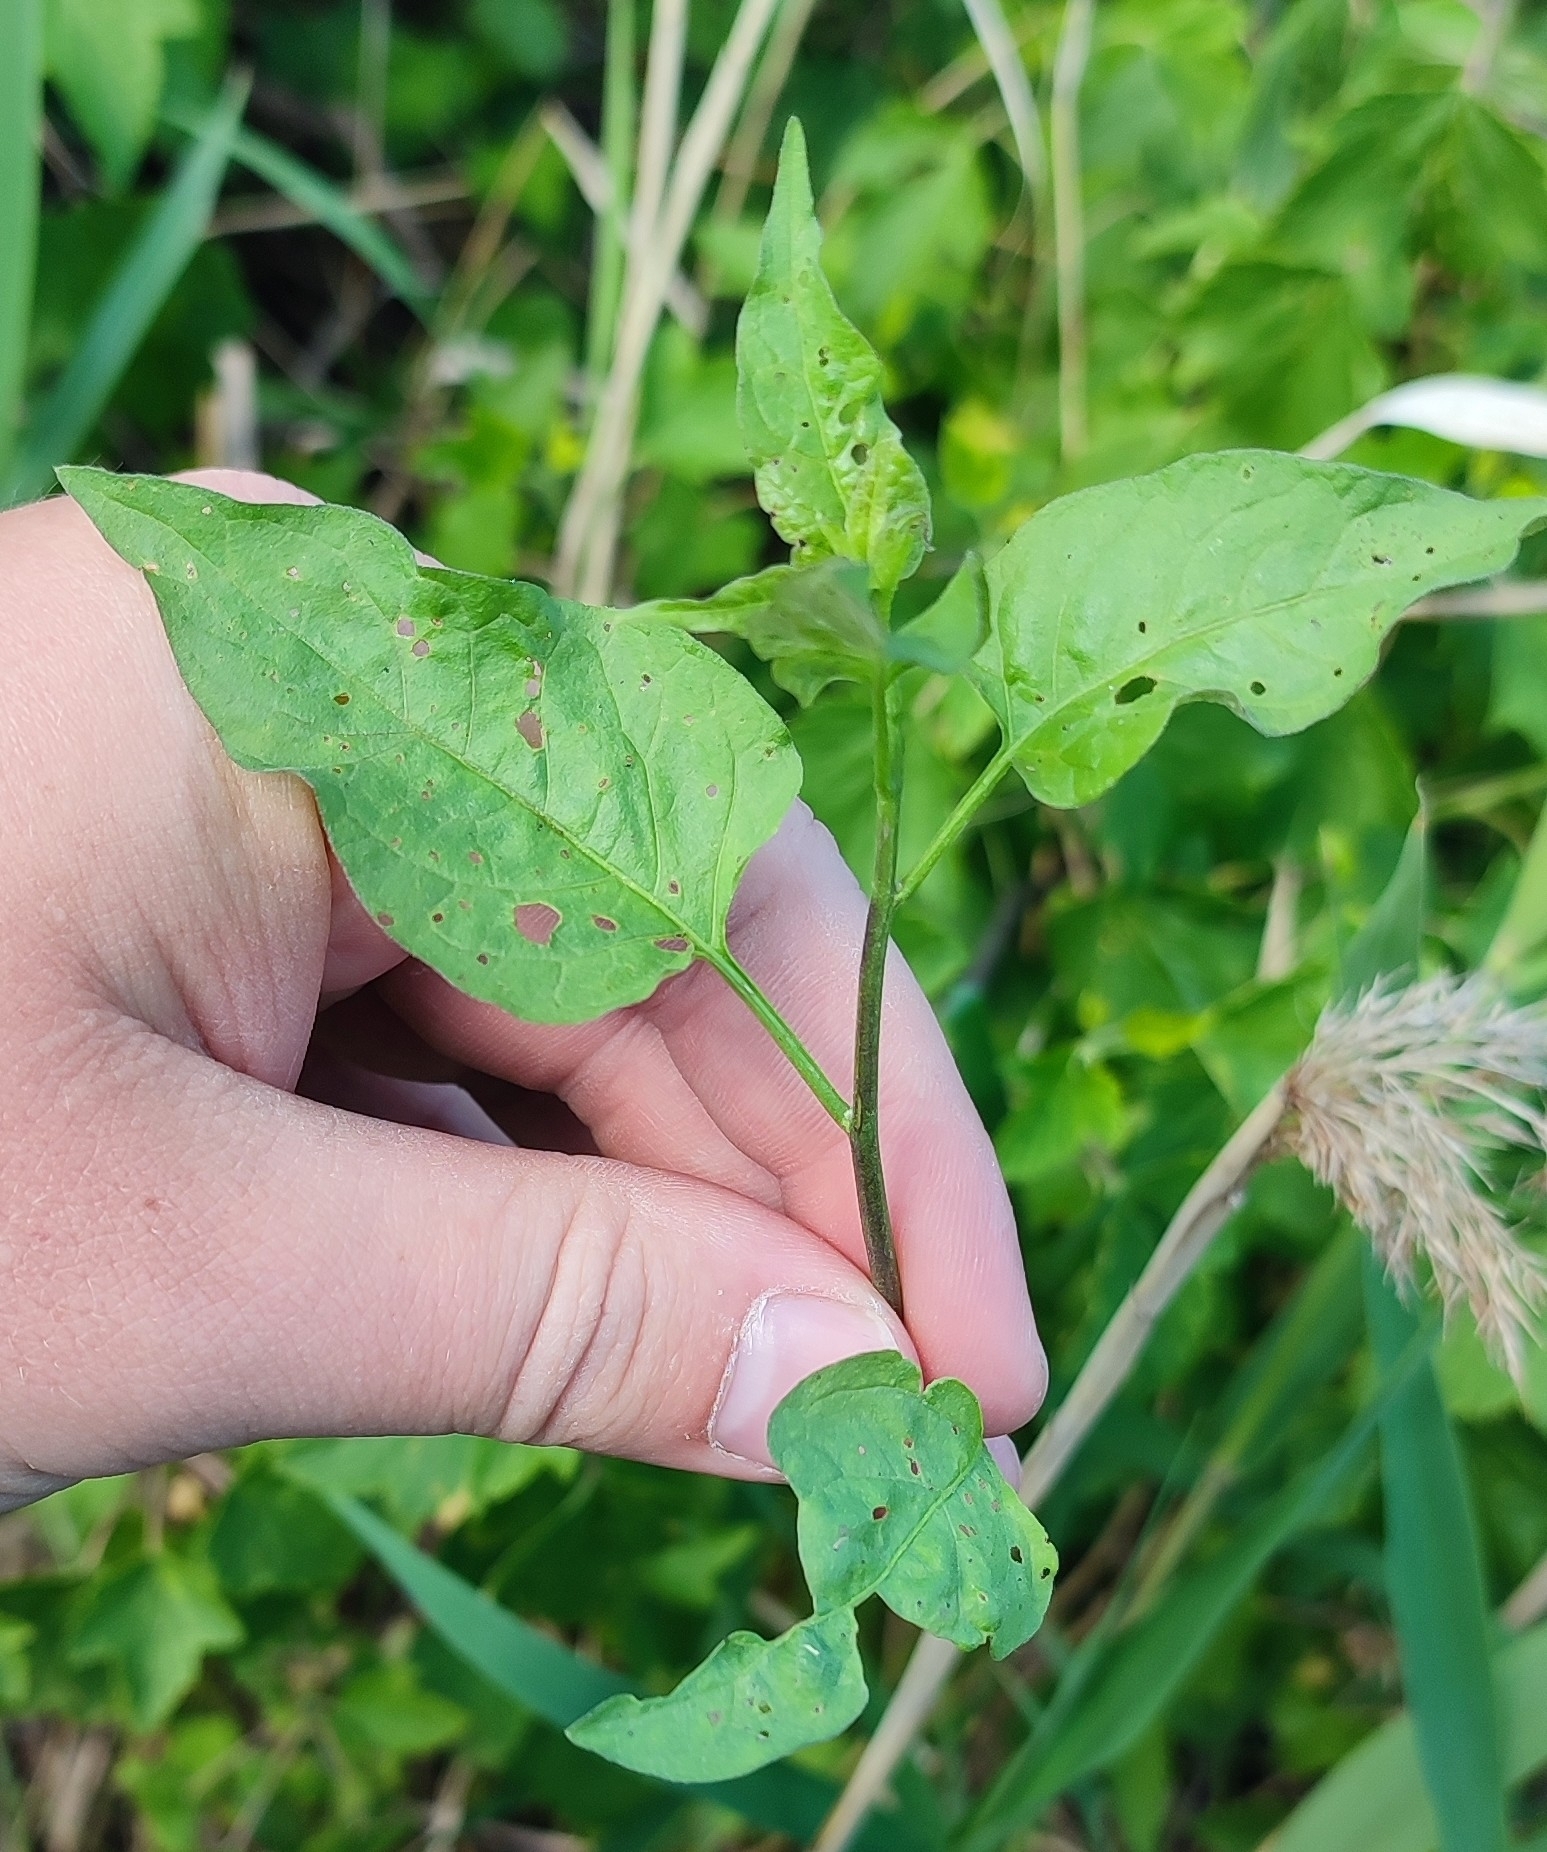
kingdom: Plantae
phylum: Tracheophyta
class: Magnoliopsida
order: Solanales
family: Solanaceae
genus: Solanum
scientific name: Solanum dulcamara
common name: Climbing nightshade
